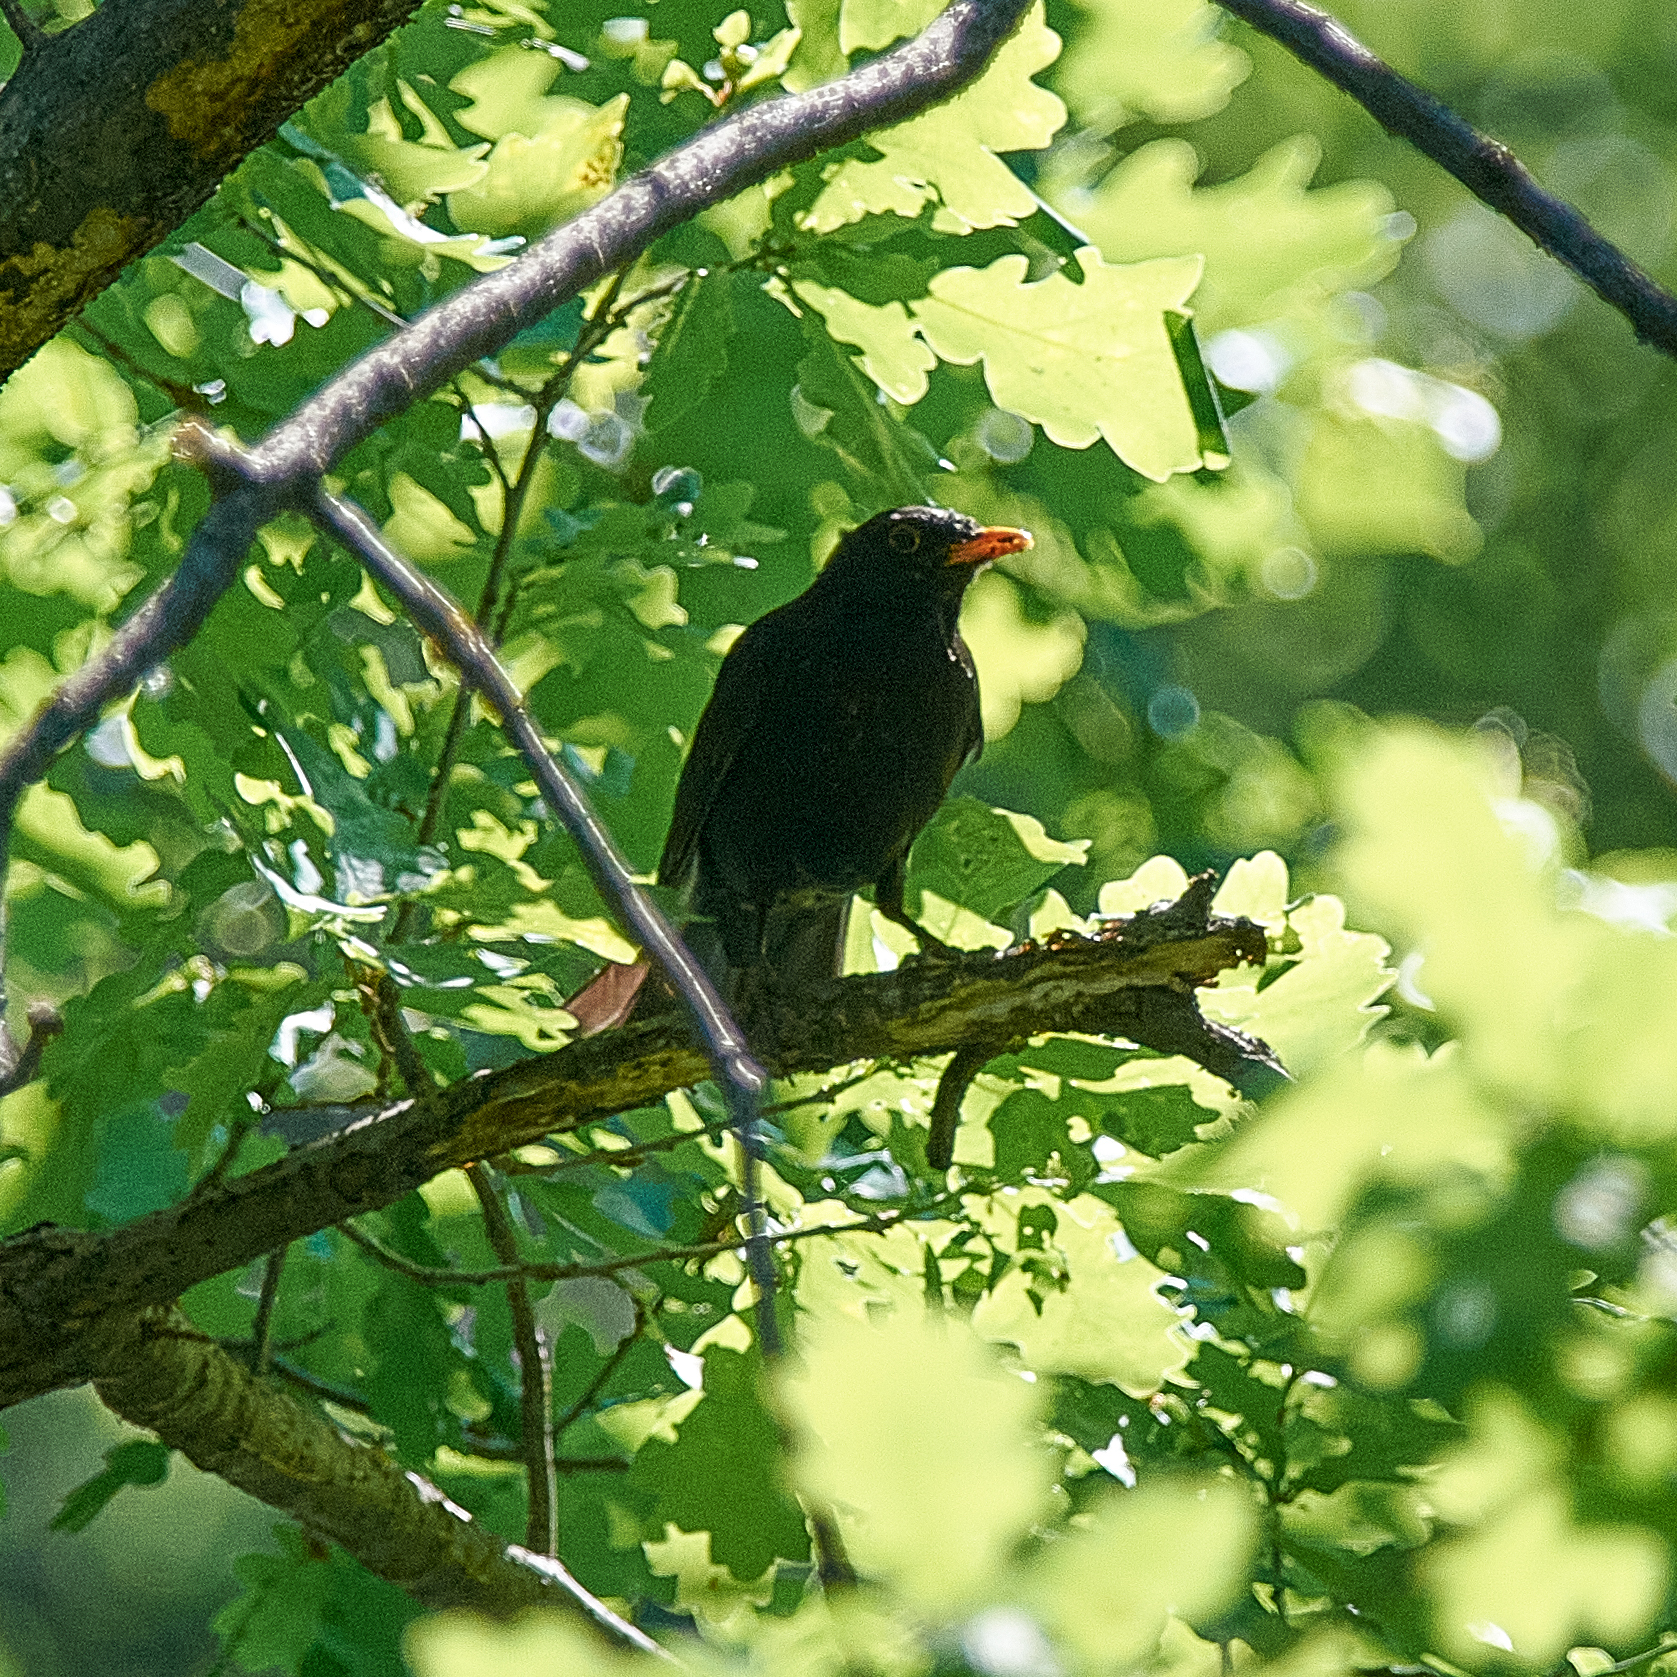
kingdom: Animalia
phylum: Chordata
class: Aves
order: Passeriformes
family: Turdidae
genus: Turdus
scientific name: Turdus merula
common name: Common blackbird
